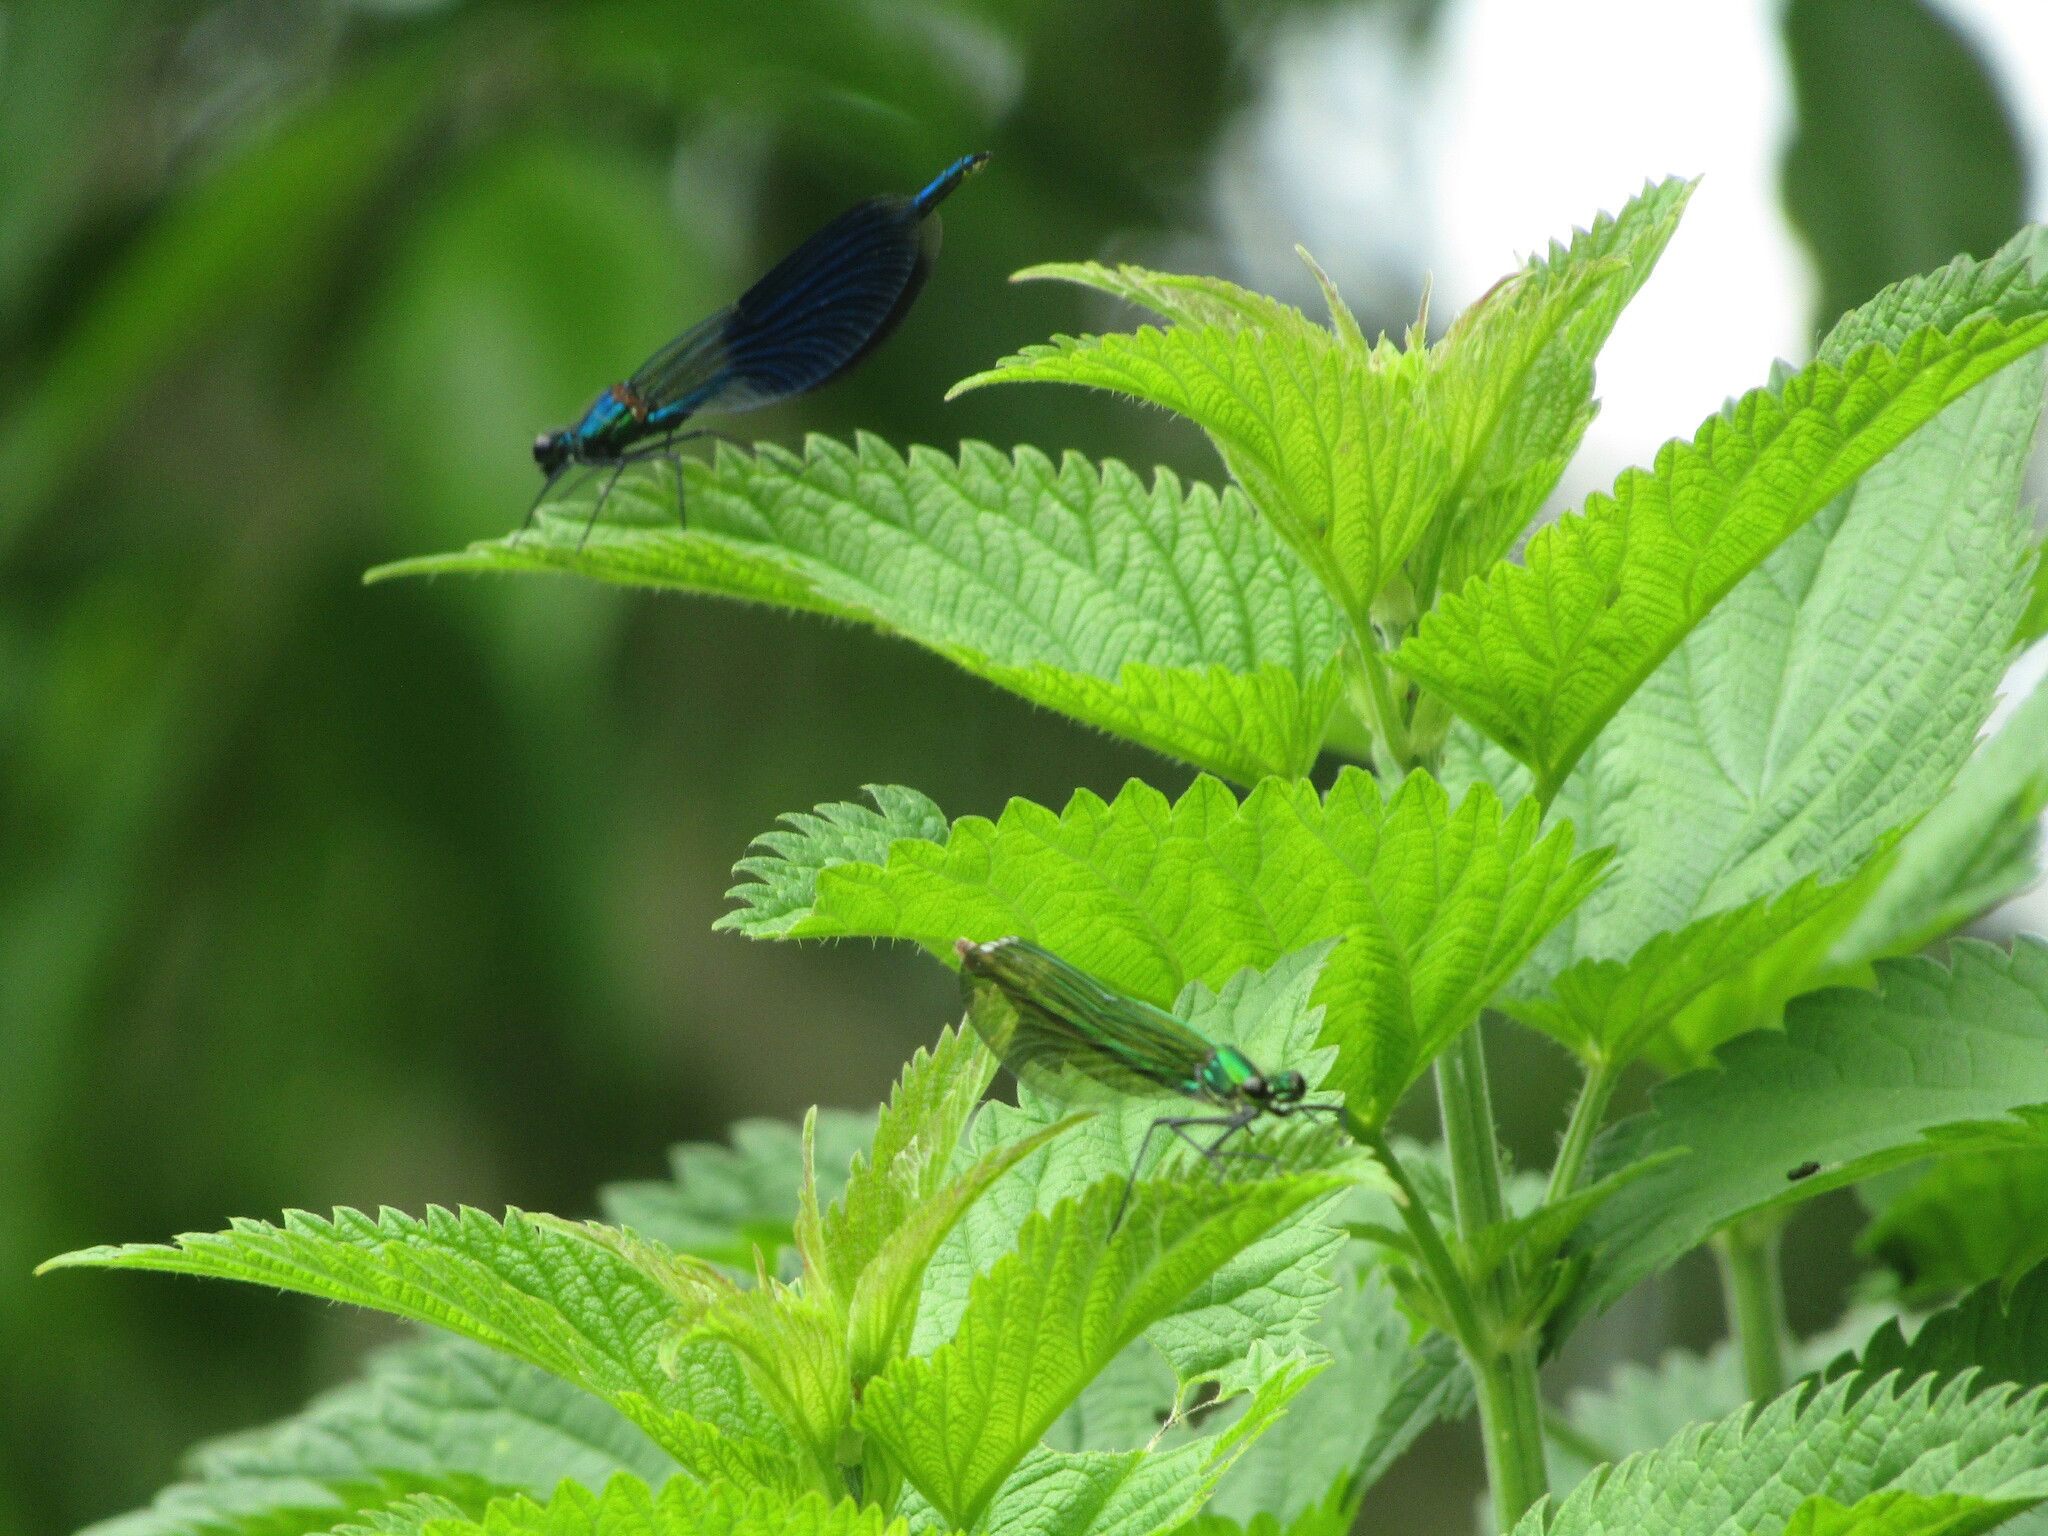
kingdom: Animalia
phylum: Arthropoda
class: Insecta
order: Odonata
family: Calopterygidae
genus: Calopteryx
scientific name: Calopteryx splendens
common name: Banded demoiselle
